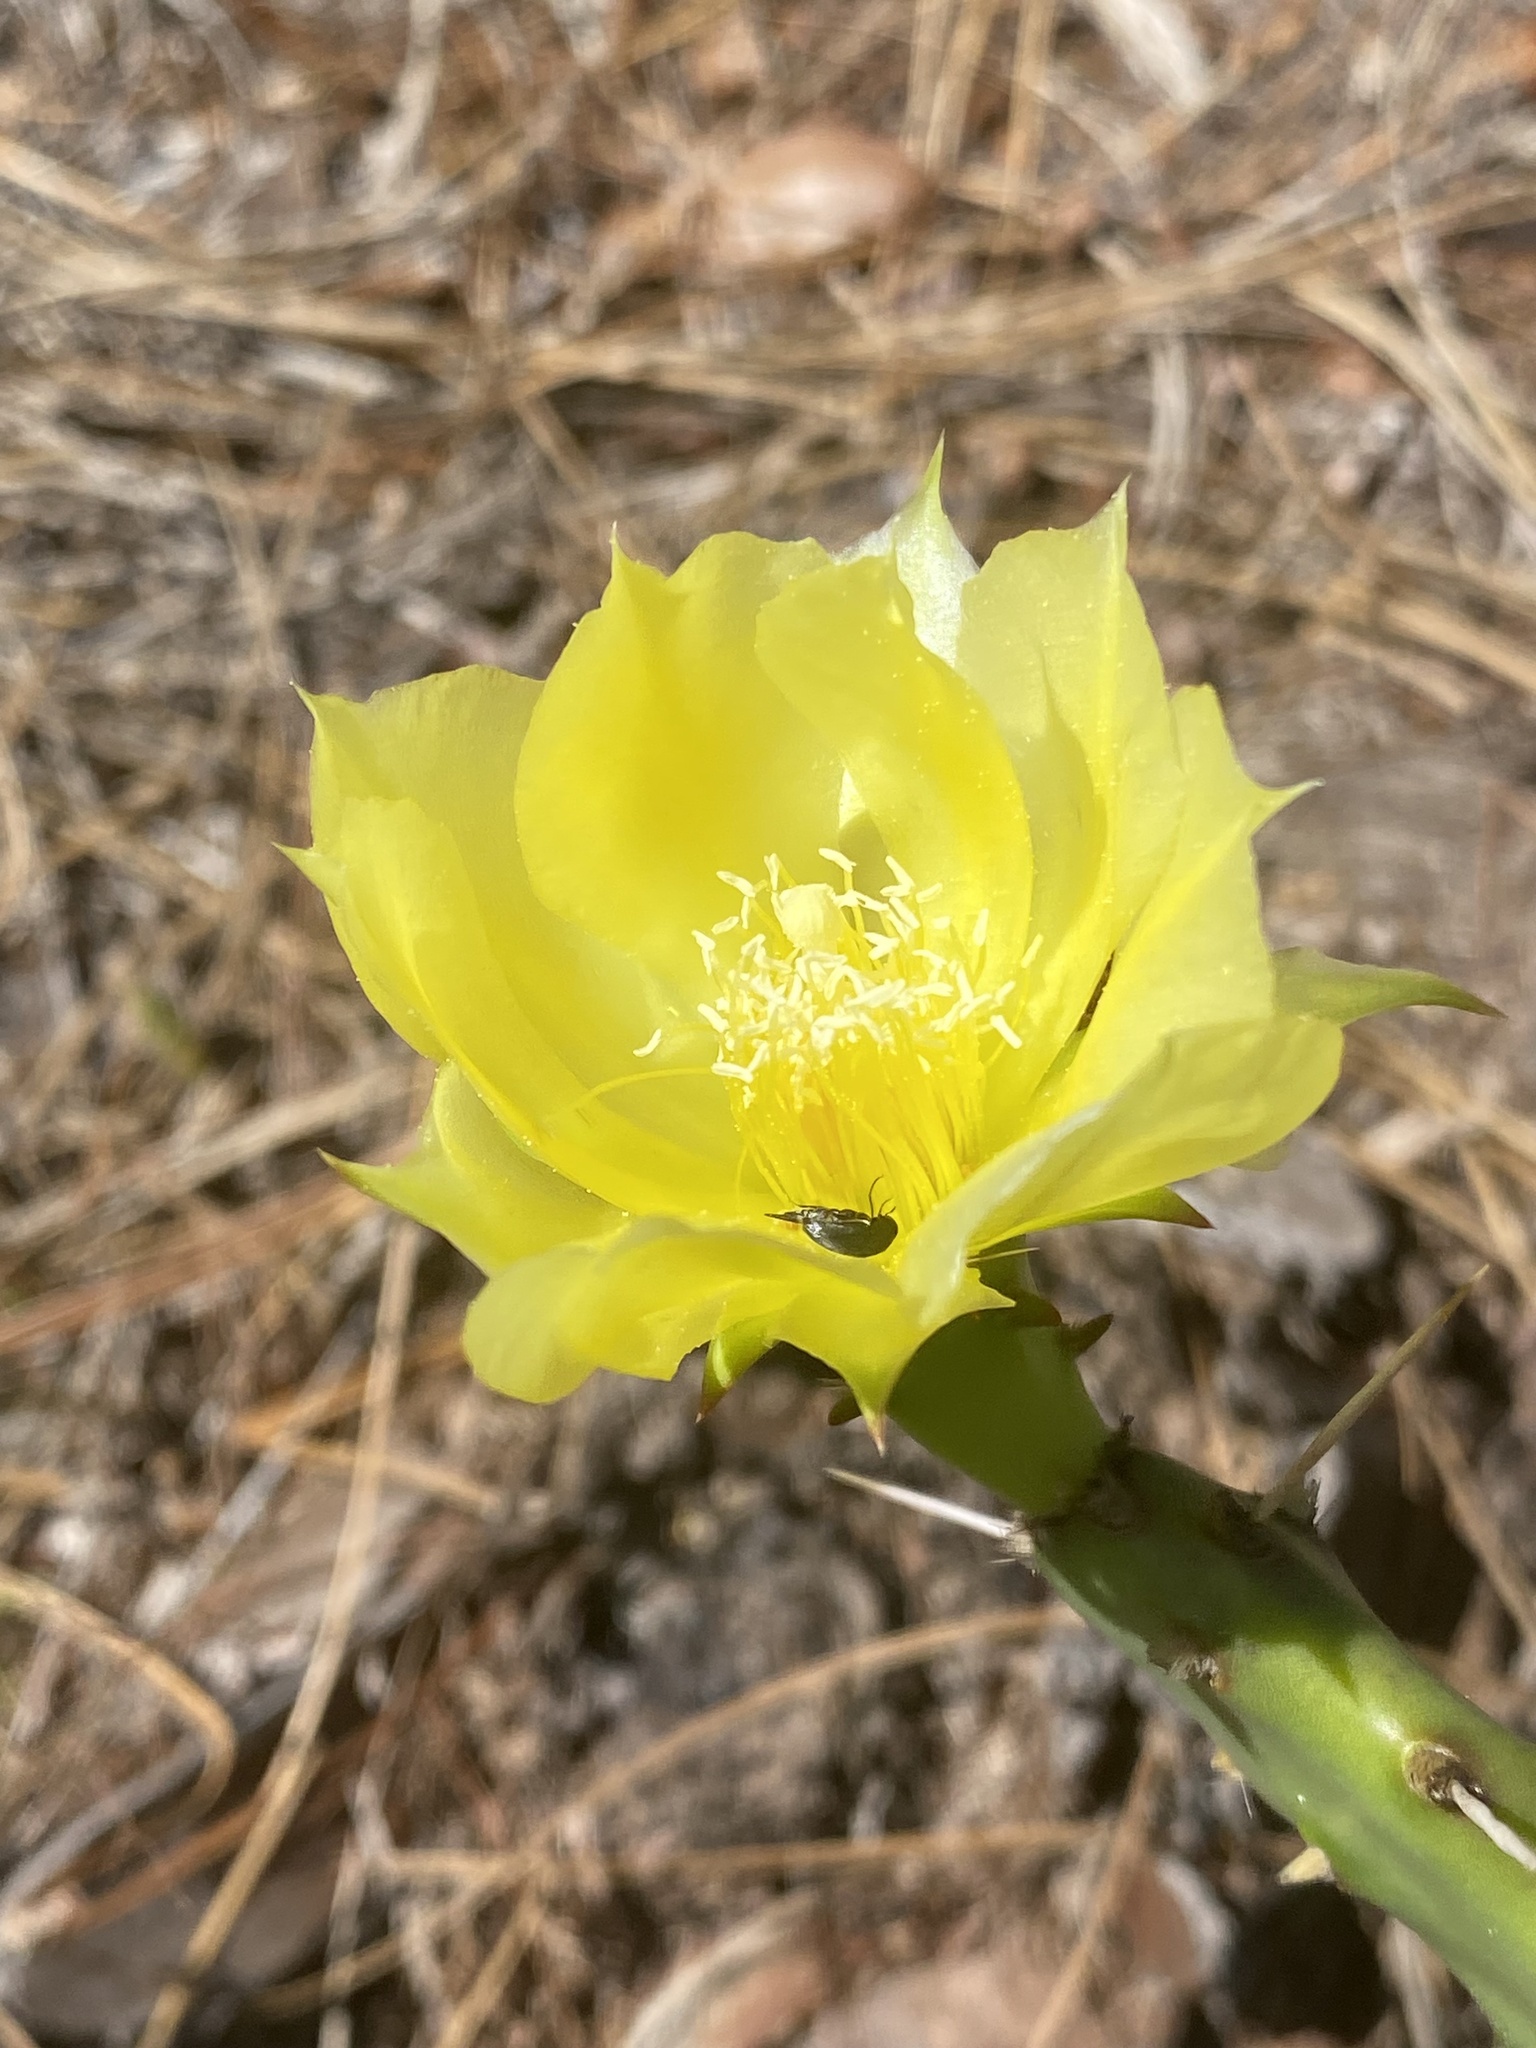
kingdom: Plantae
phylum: Tracheophyta
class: Magnoliopsida
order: Caryophyllales
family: Cactaceae
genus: Opuntia
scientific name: Opuntia austrina
